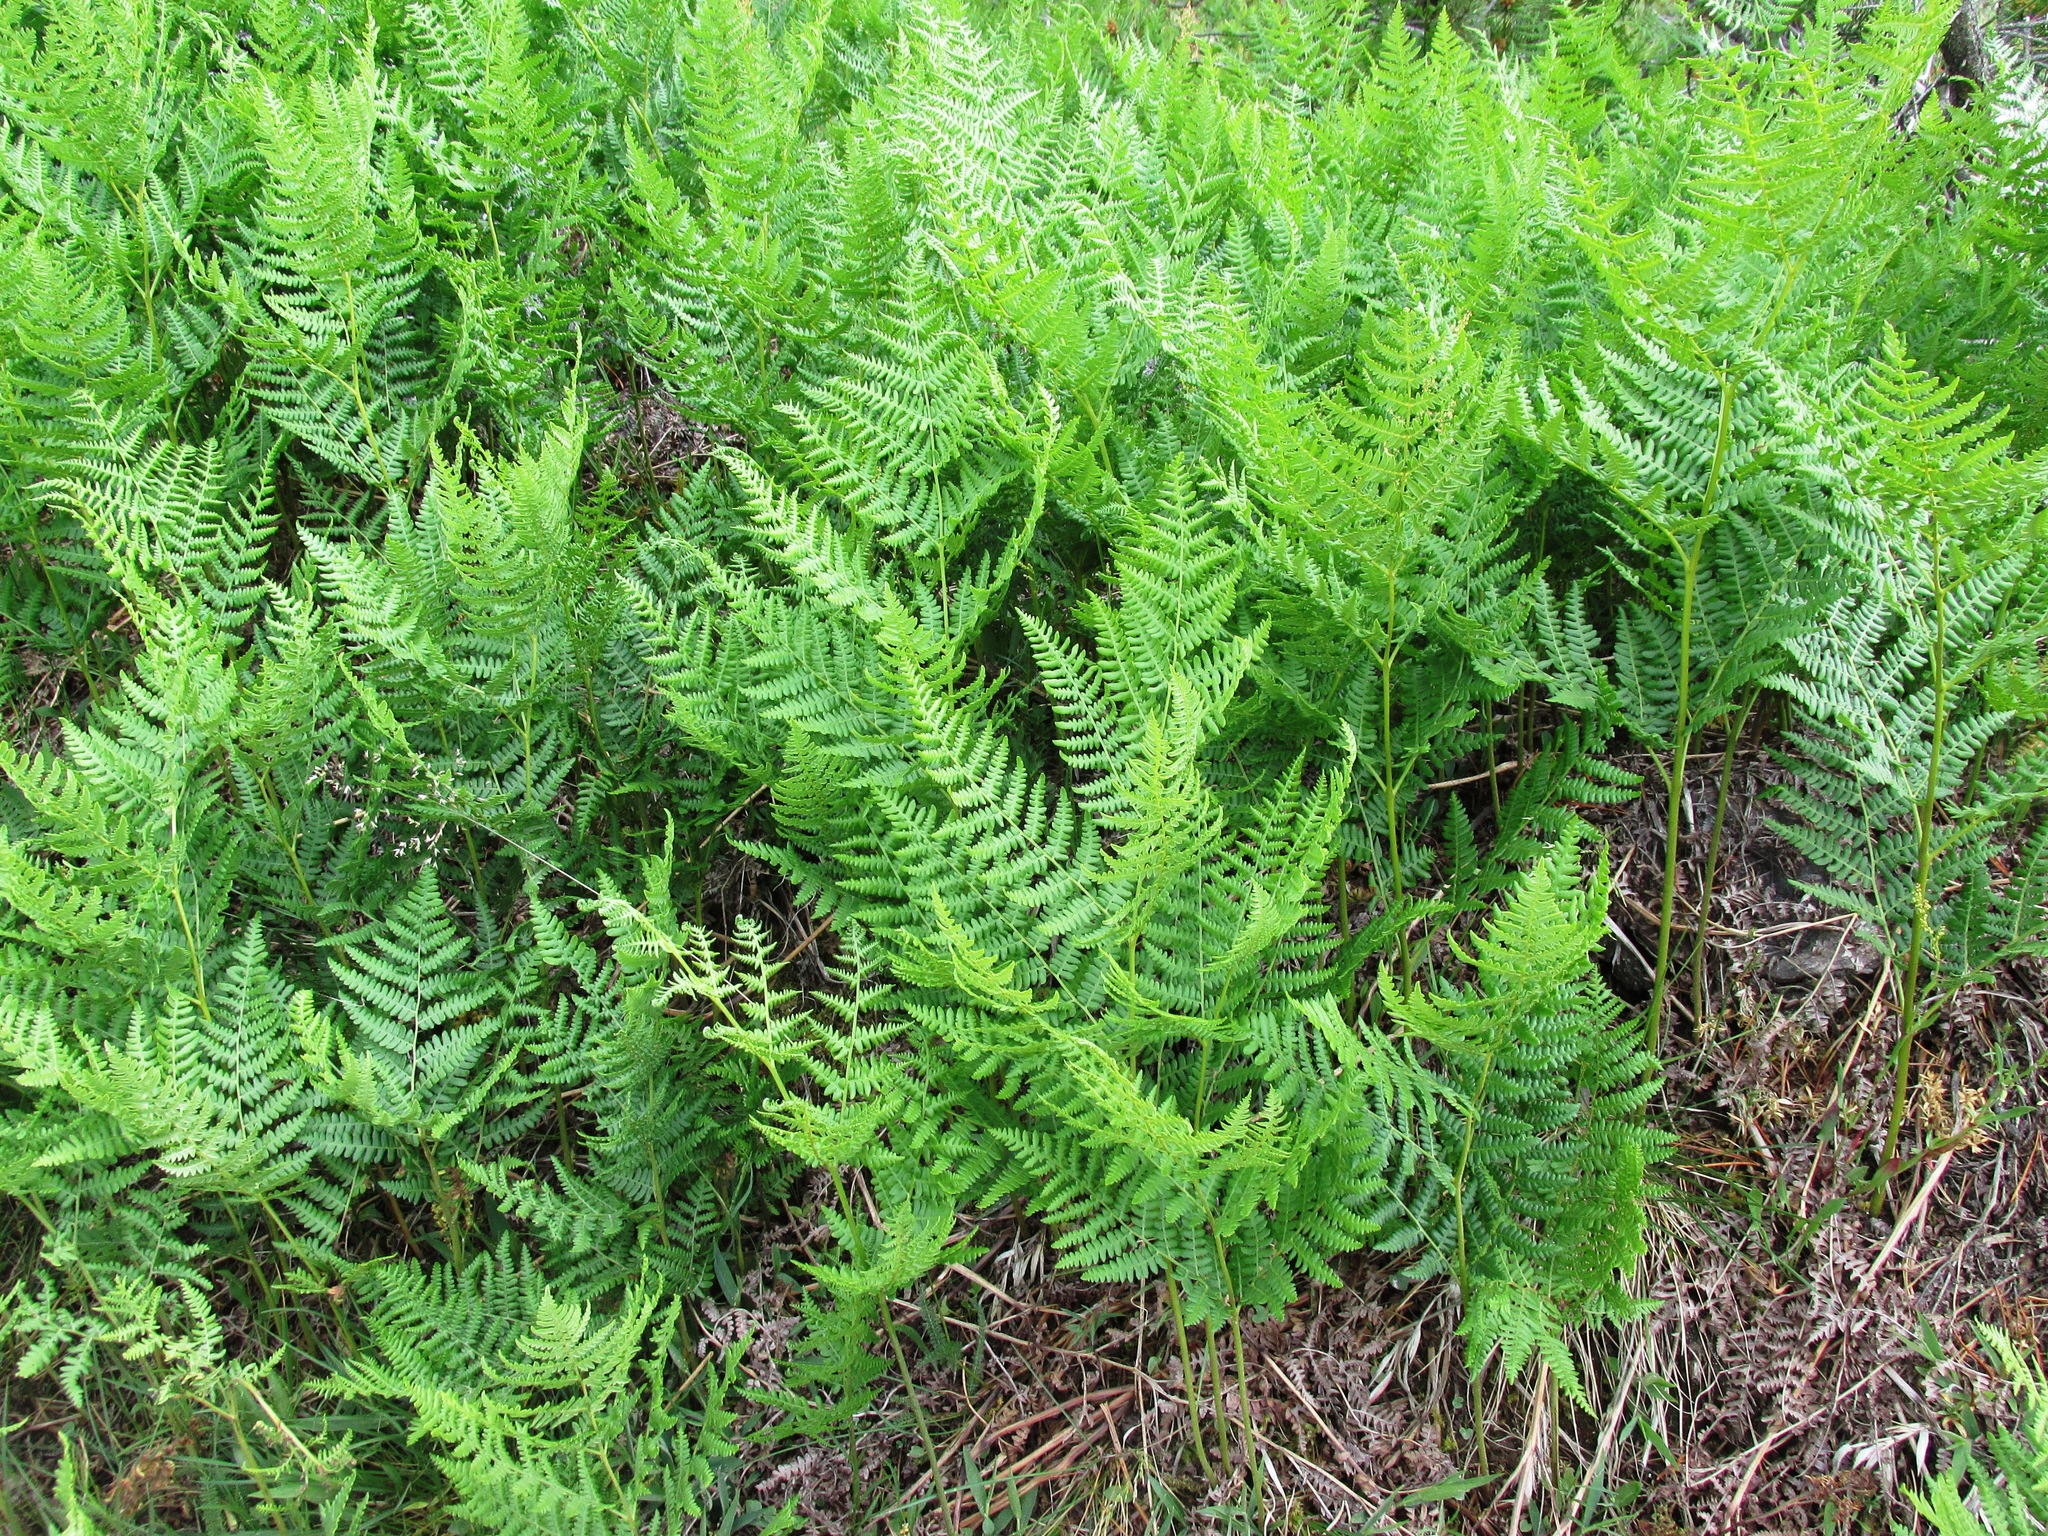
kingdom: Plantae
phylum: Tracheophyta
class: Polypodiopsida
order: Polypodiales
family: Dennstaedtiaceae
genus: Pteridium
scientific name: Pteridium aquilinum
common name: Bracken
